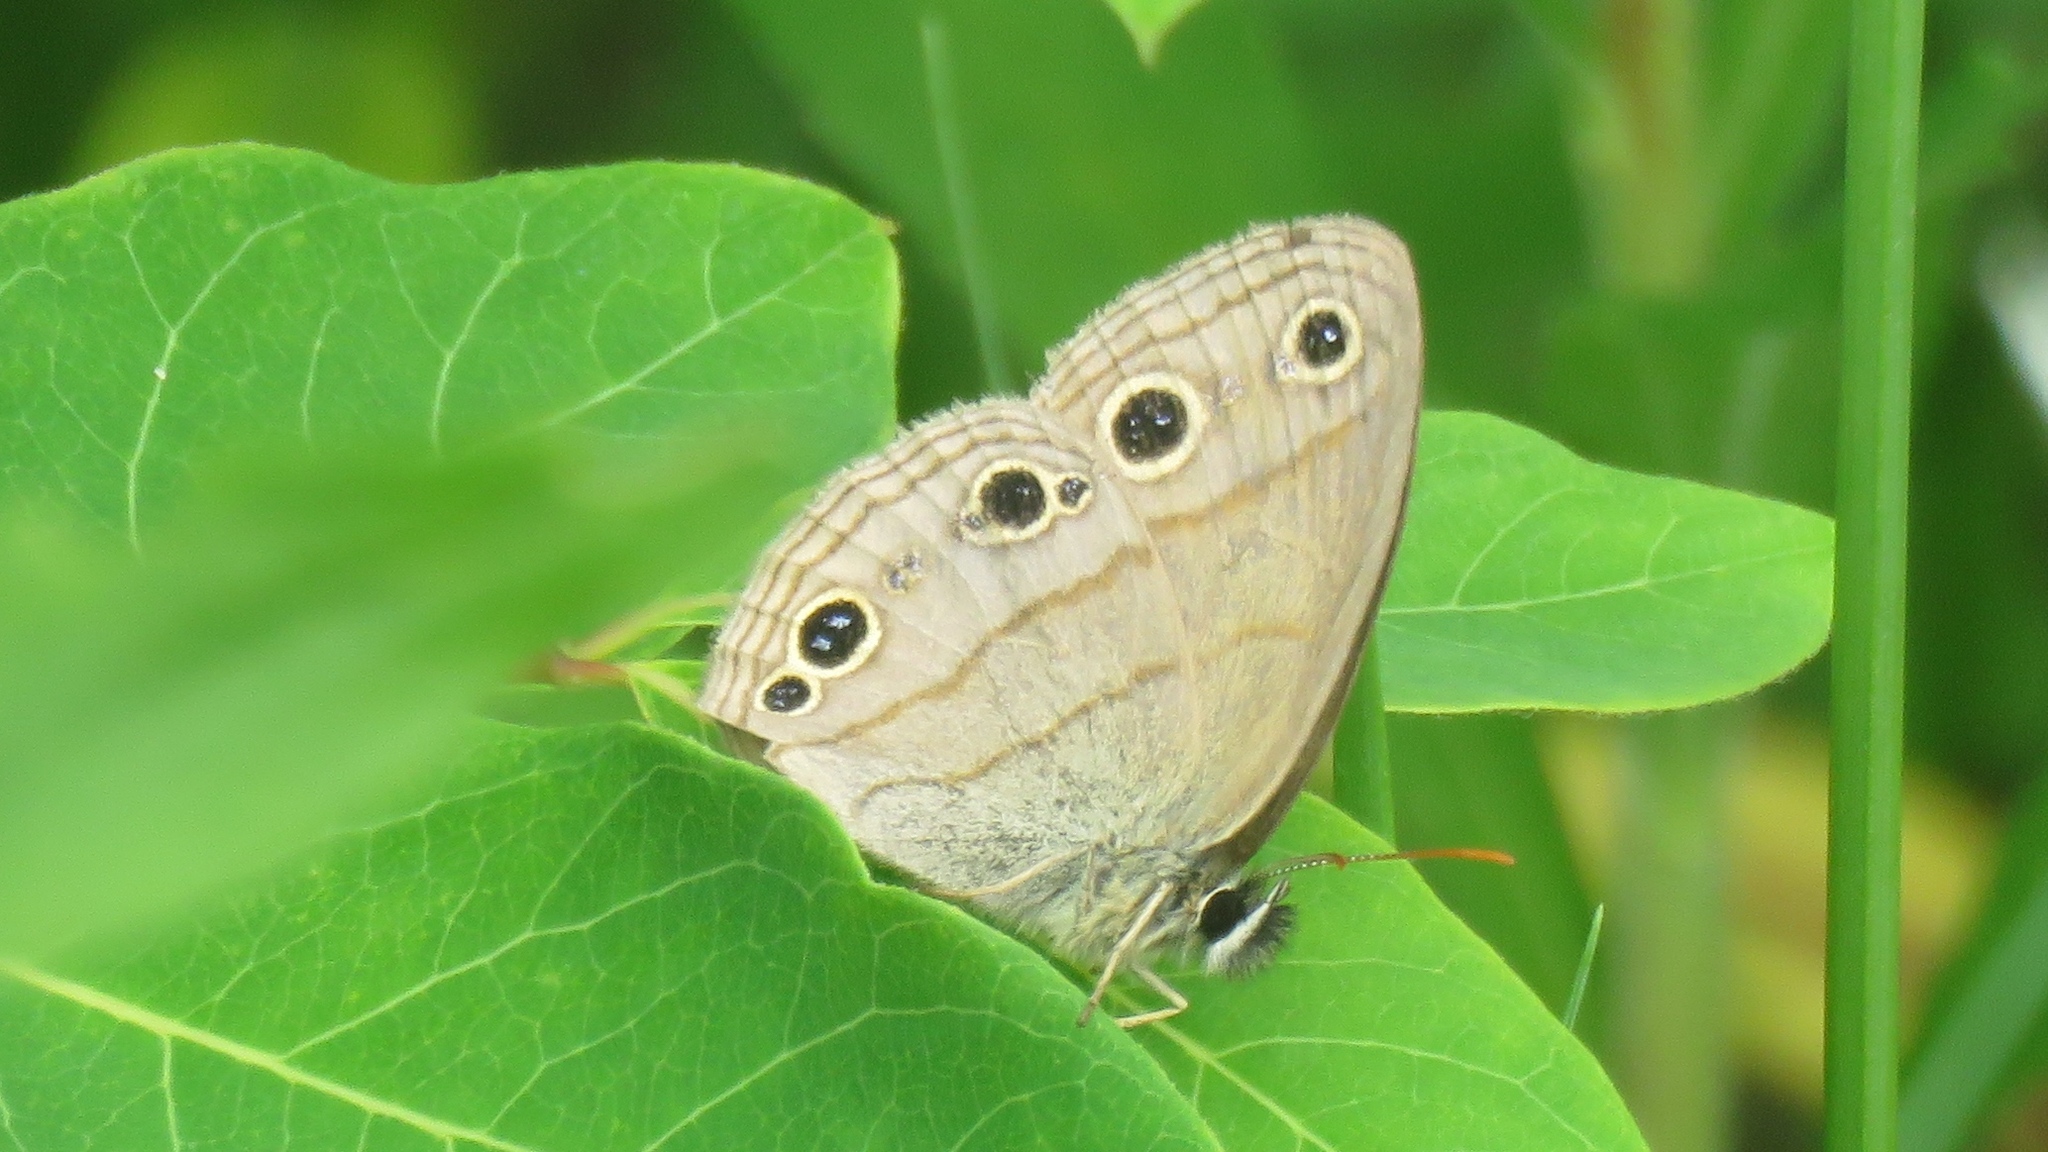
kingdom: Animalia
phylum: Arthropoda
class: Insecta
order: Lepidoptera
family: Nymphalidae
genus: Euptychia
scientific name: Euptychia cymela
